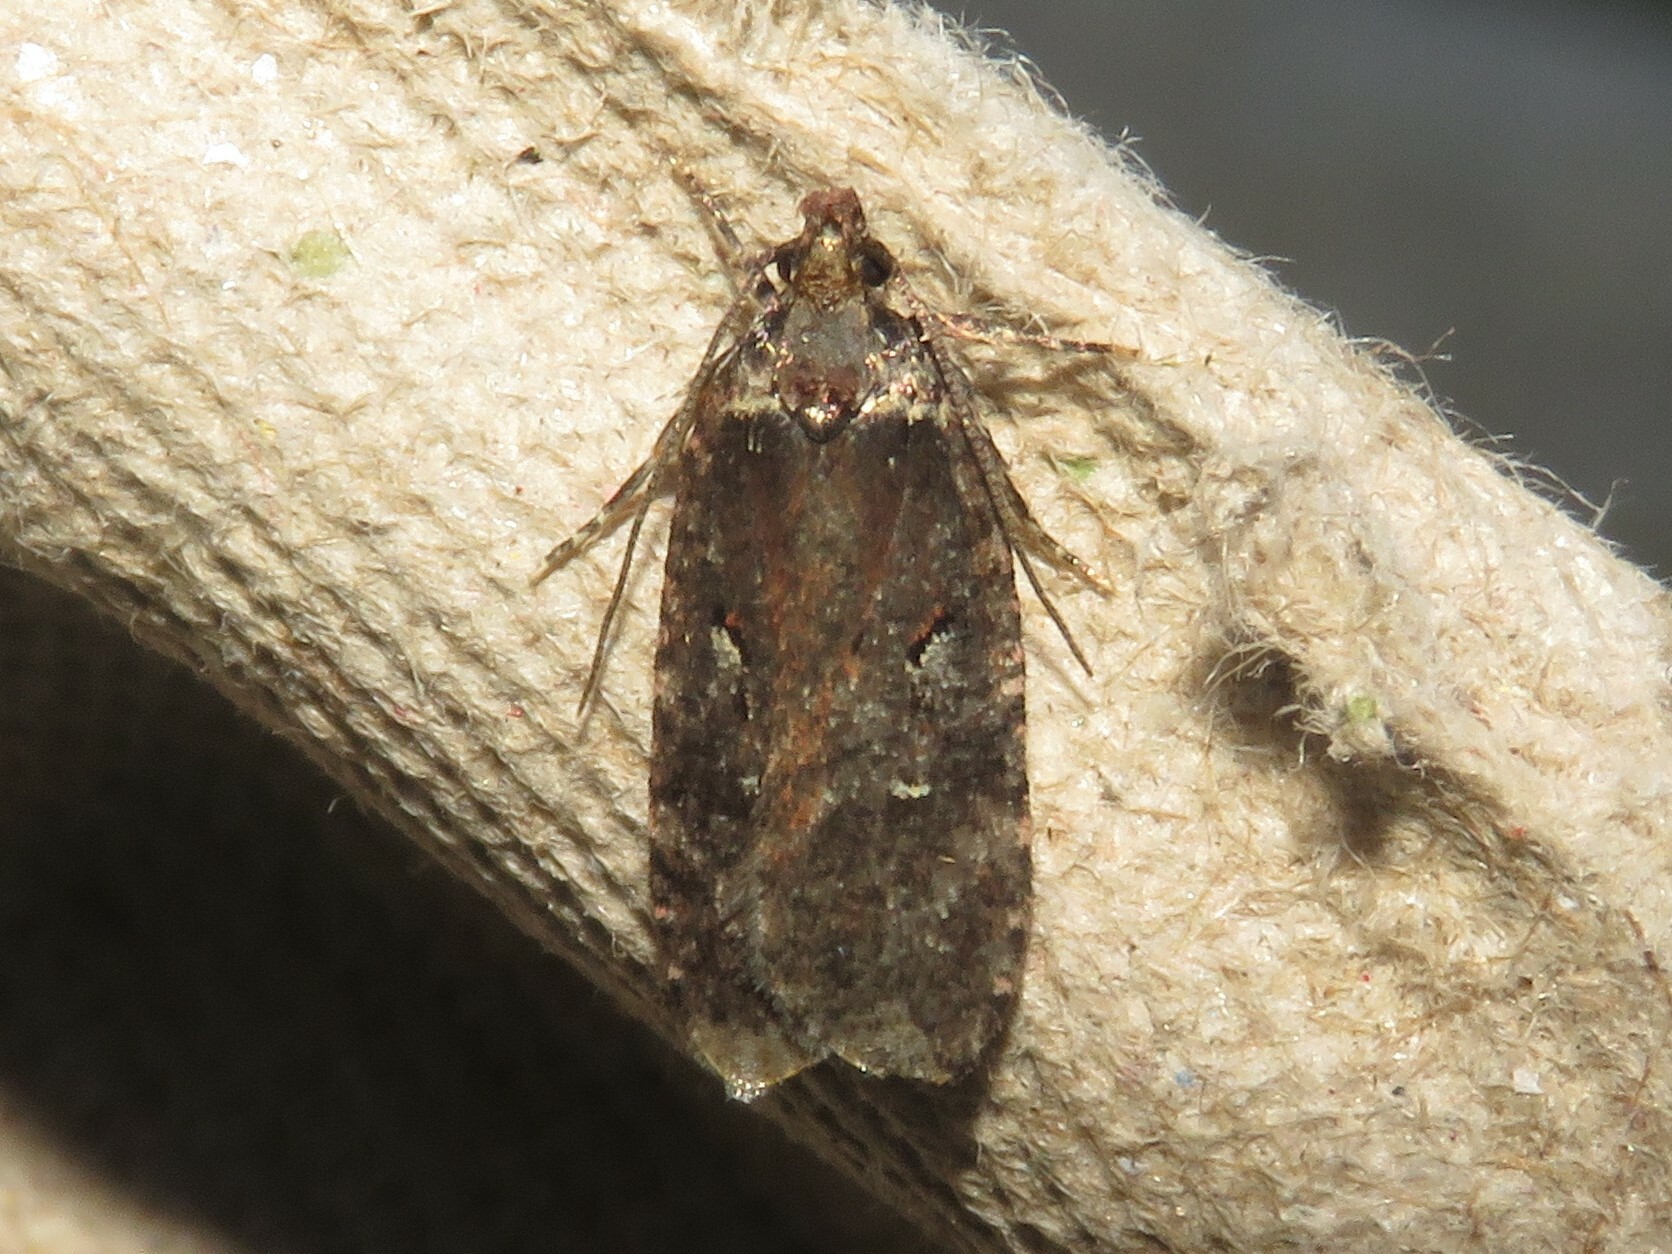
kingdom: Animalia
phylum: Arthropoda
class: Insecta
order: Lepidoptera
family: Depressariidae
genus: Agonopterix
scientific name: Agonopterix lythrella
